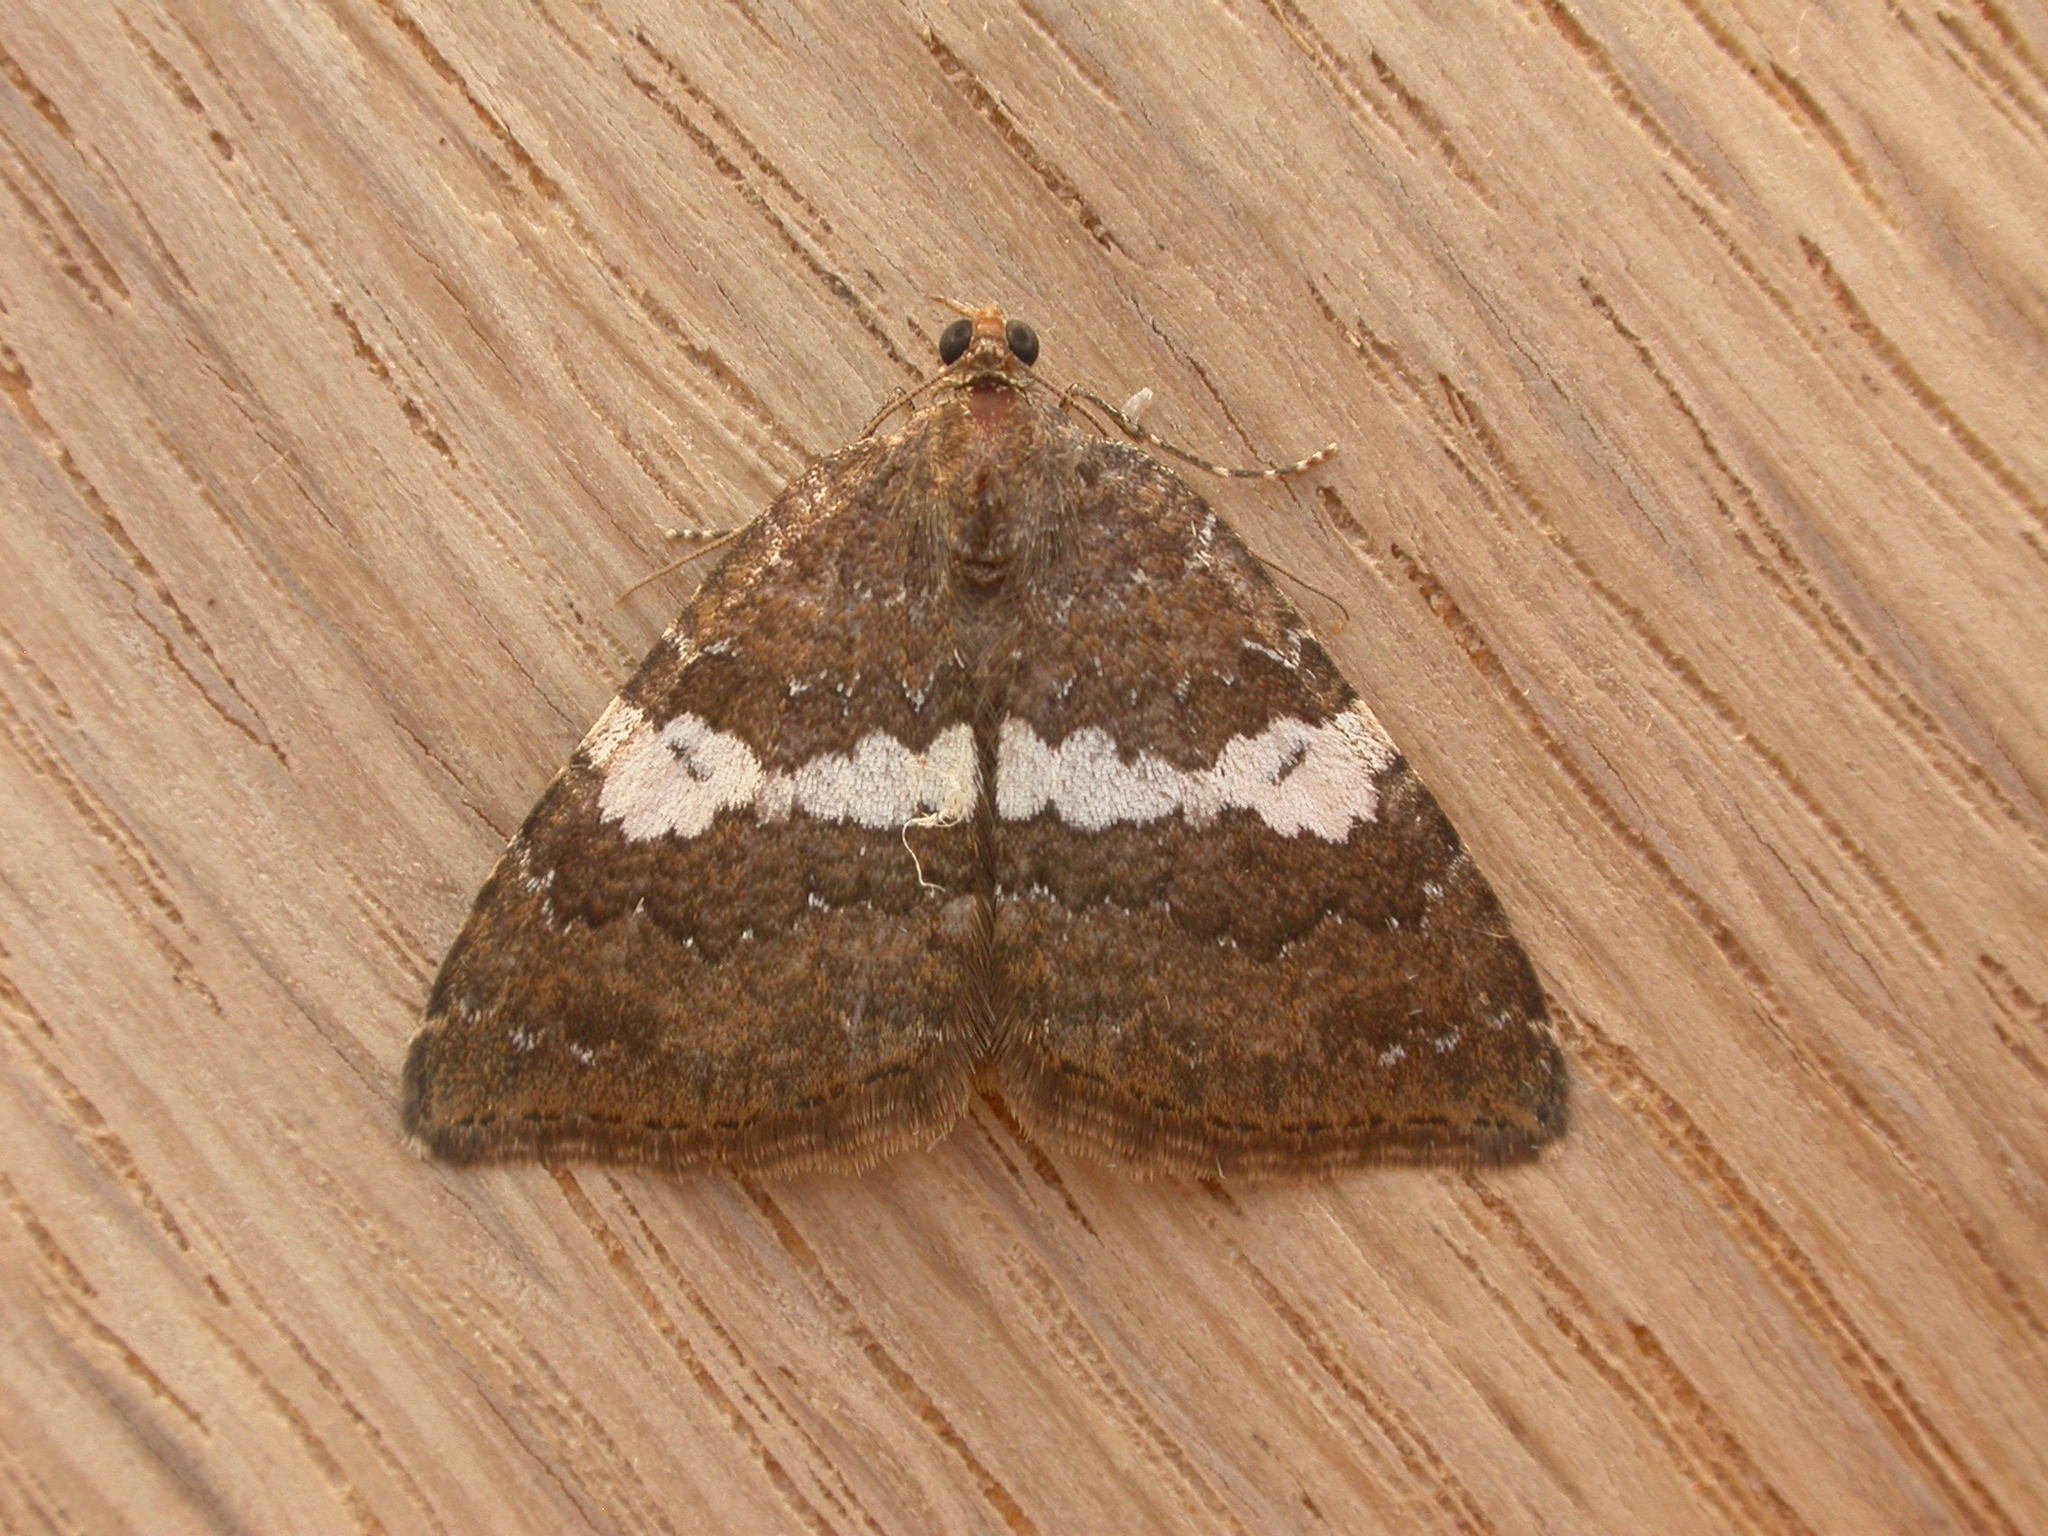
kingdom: Animalia
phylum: Arthropoda
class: Insecta
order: Lepidoptera
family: Geometridae
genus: Chrysolarentia
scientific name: Chrysolarentia heteroleuca
